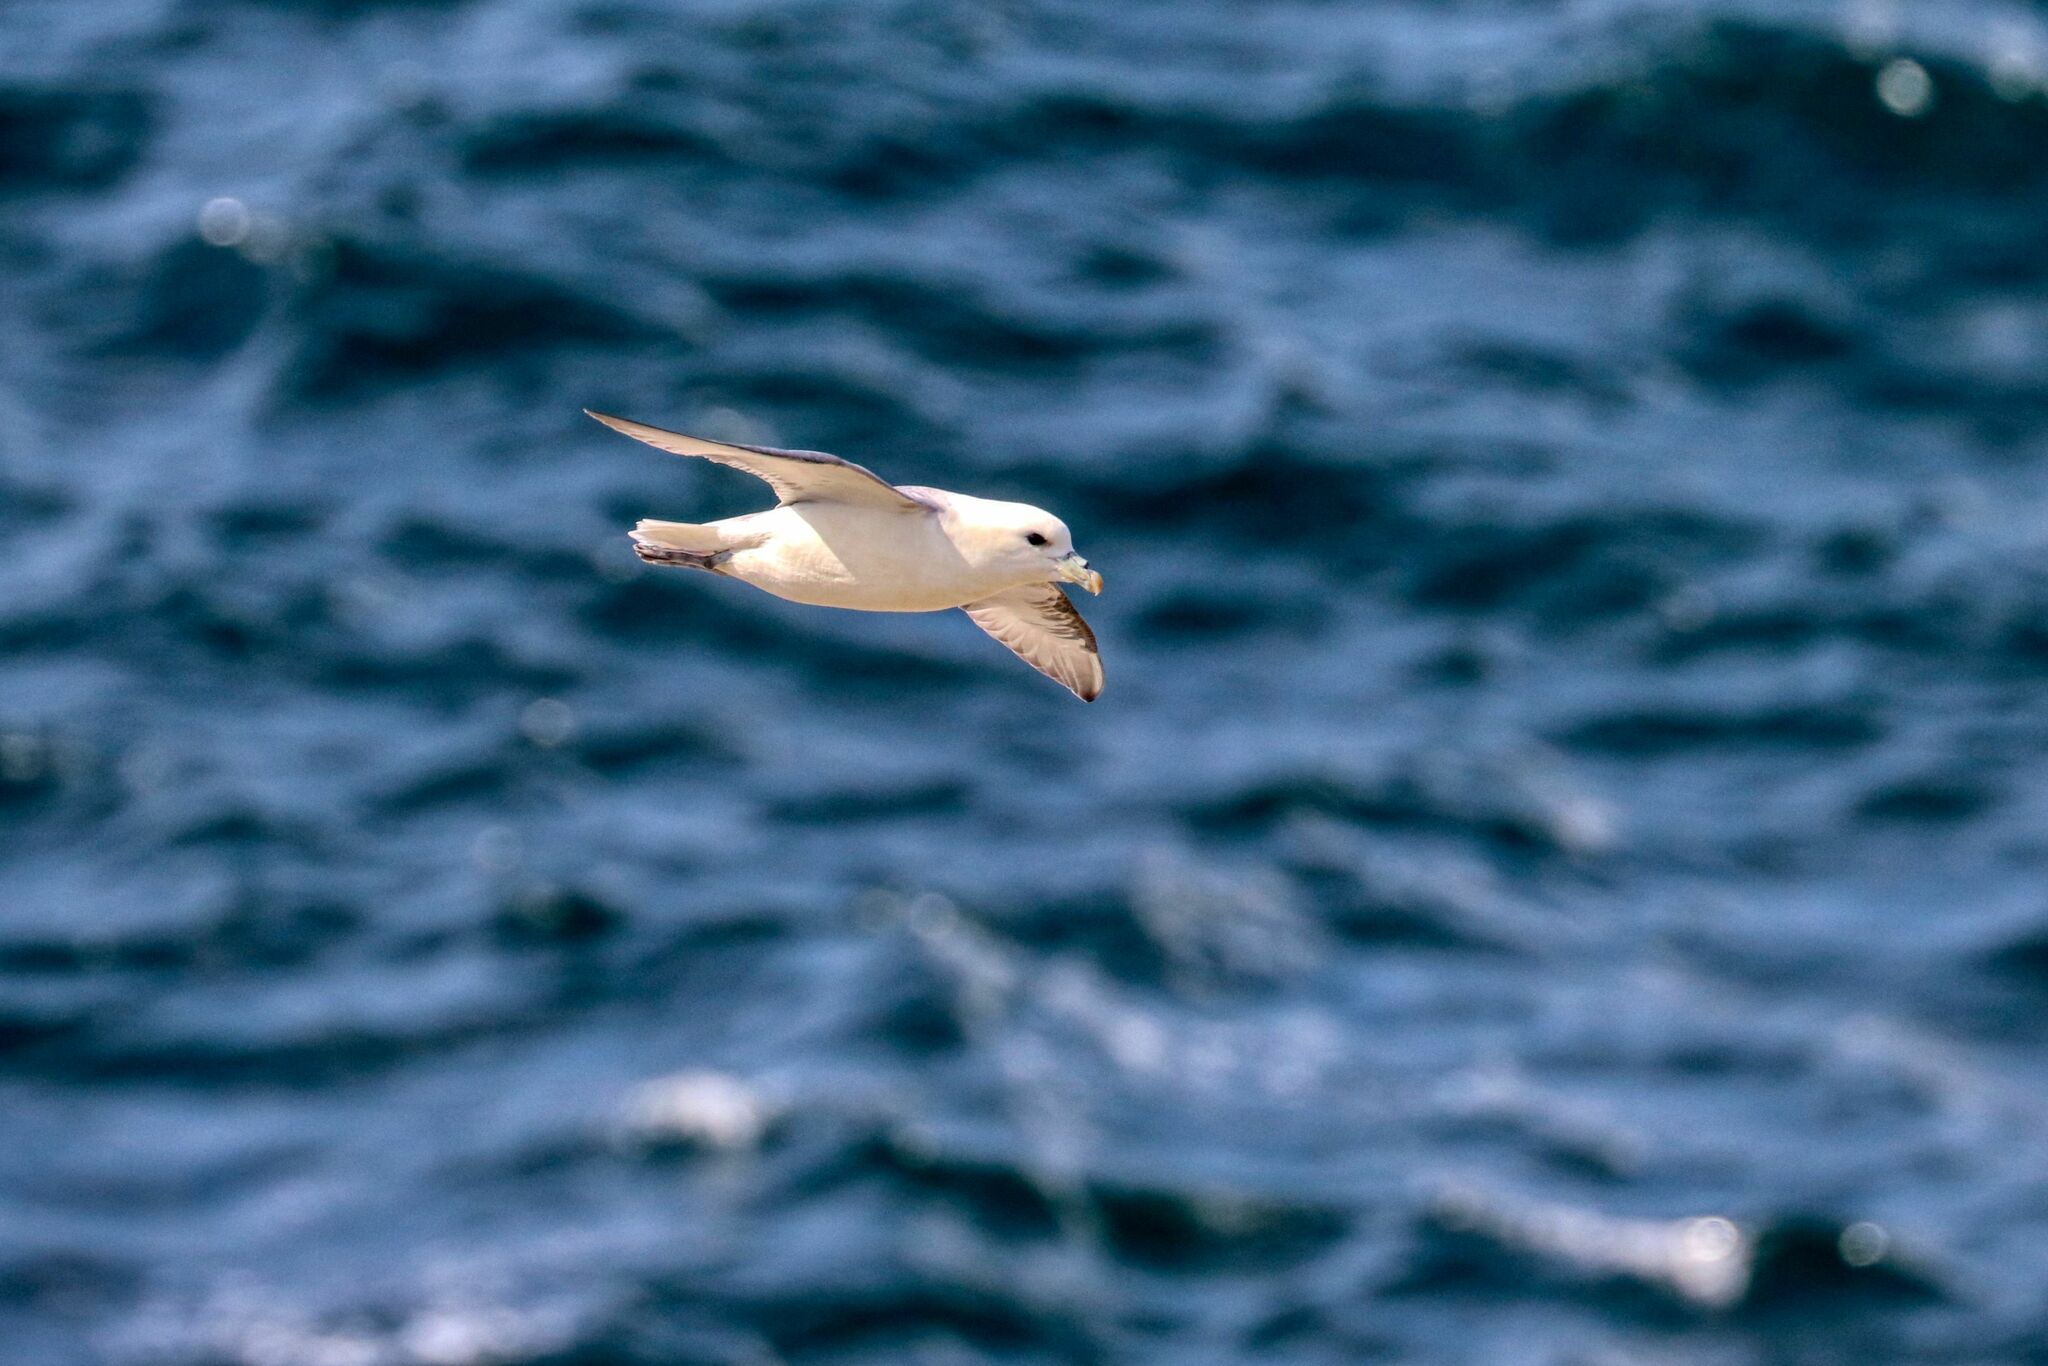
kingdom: Animalia
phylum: Chordata
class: Aves
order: Procellariiformes
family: Procellariidae
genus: Fulmarus
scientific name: Fulmarus glacialis
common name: Northern fulmar
